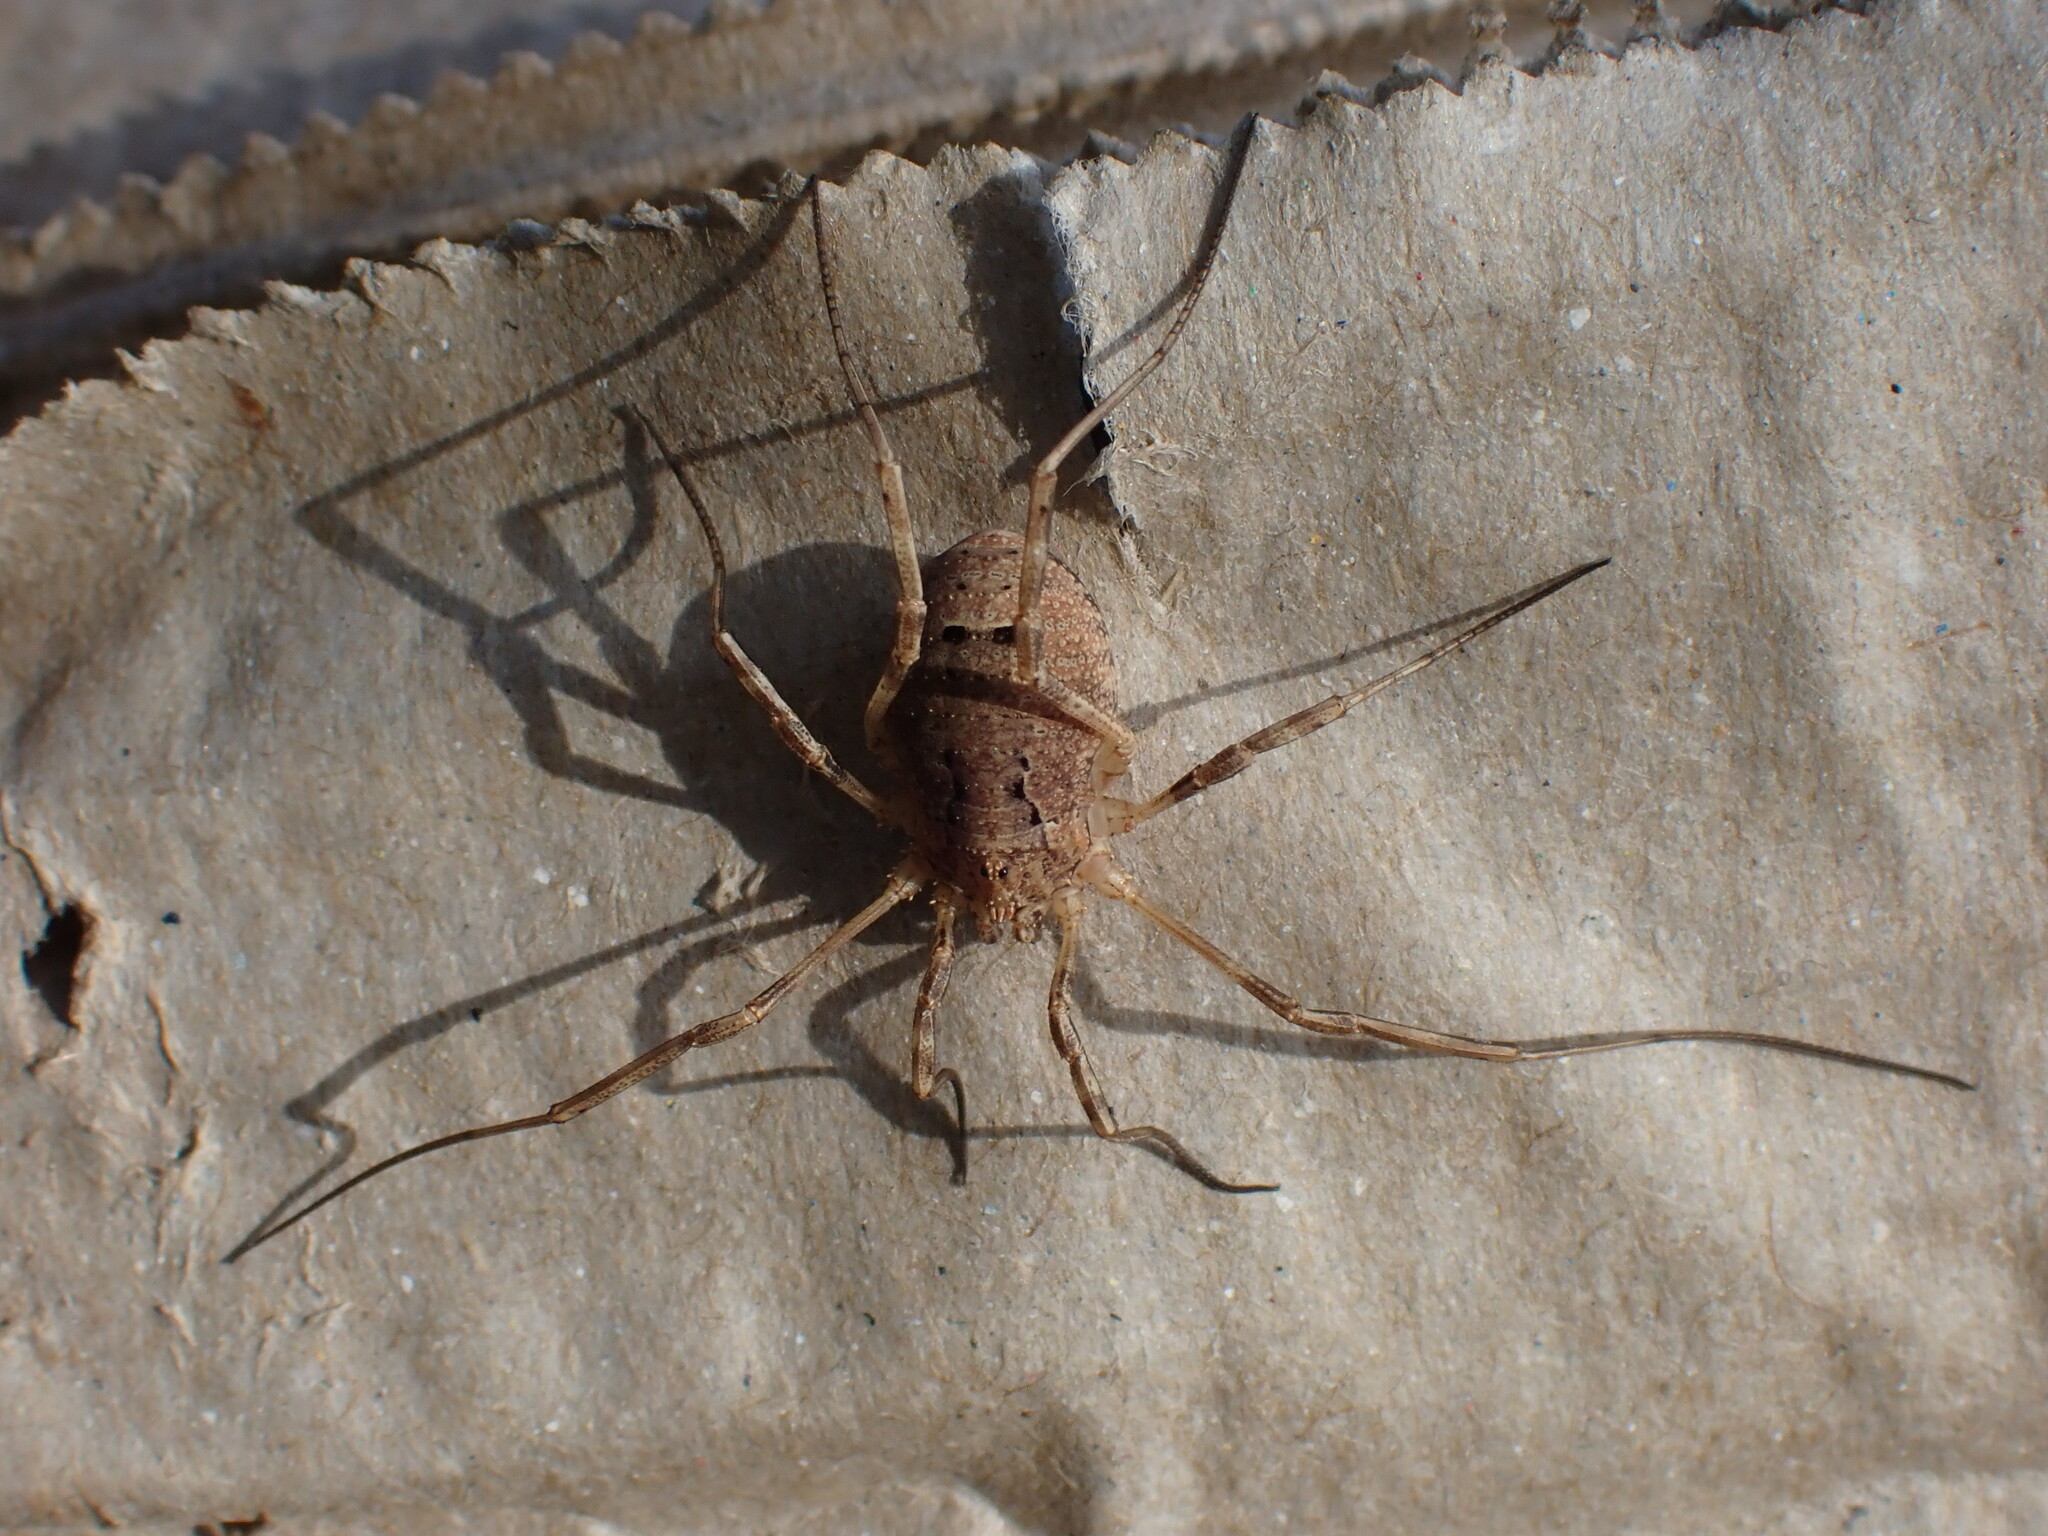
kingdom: Animalia
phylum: Arthropoda
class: Arachnida
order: Opiliones
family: Phalangiidae
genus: Odiellus
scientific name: Odiellus spinosus
